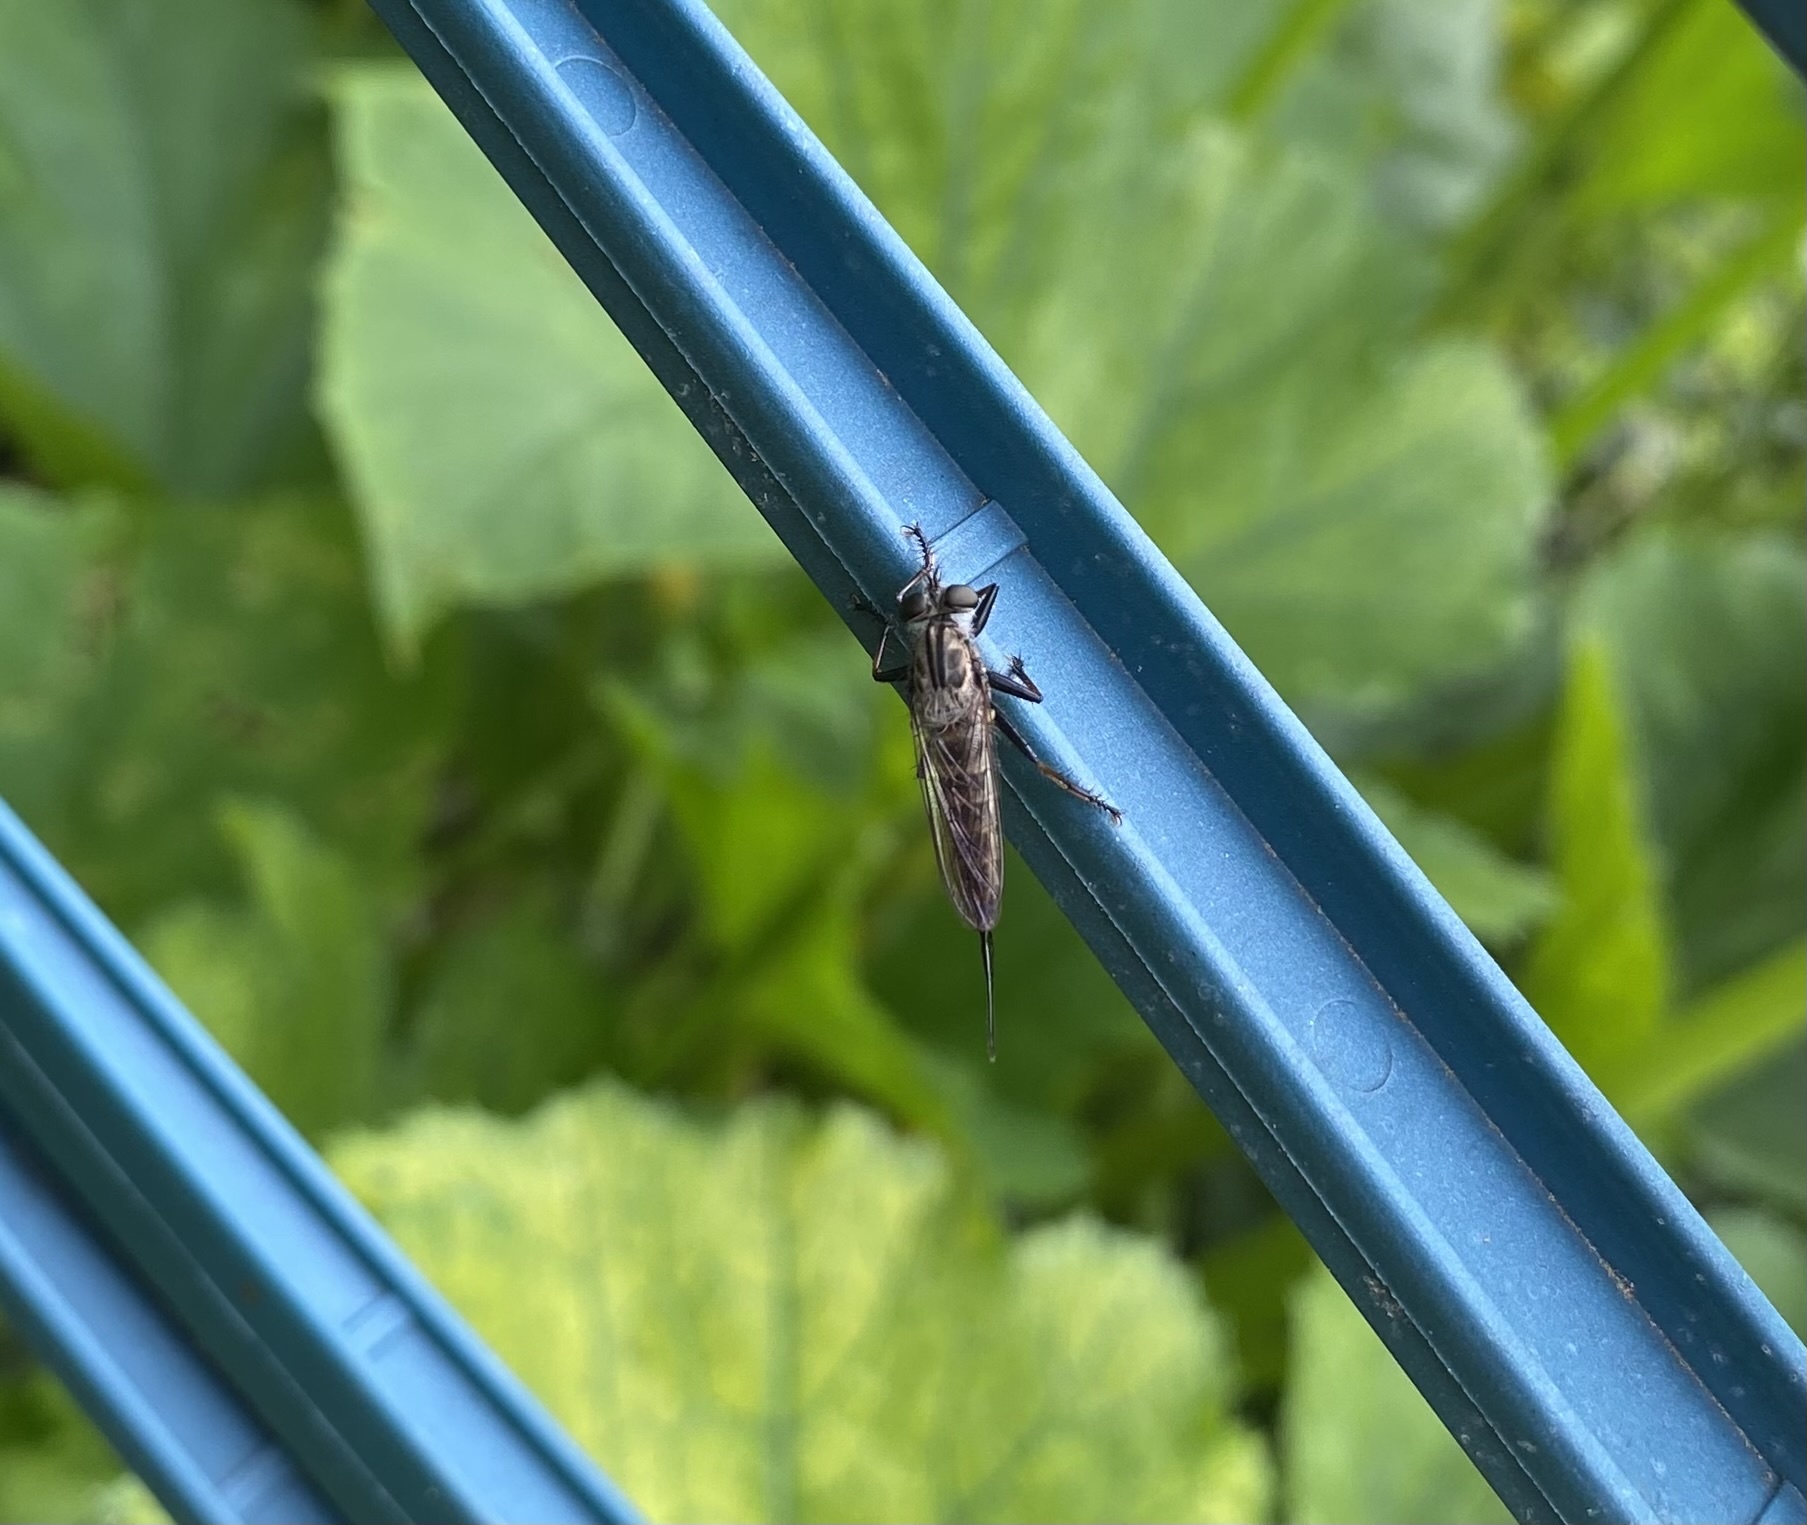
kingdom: Animalia
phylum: Arthropoda
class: Insecta
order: Diptera
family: Asilidae
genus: Efferia
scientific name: Efferia aestuans
